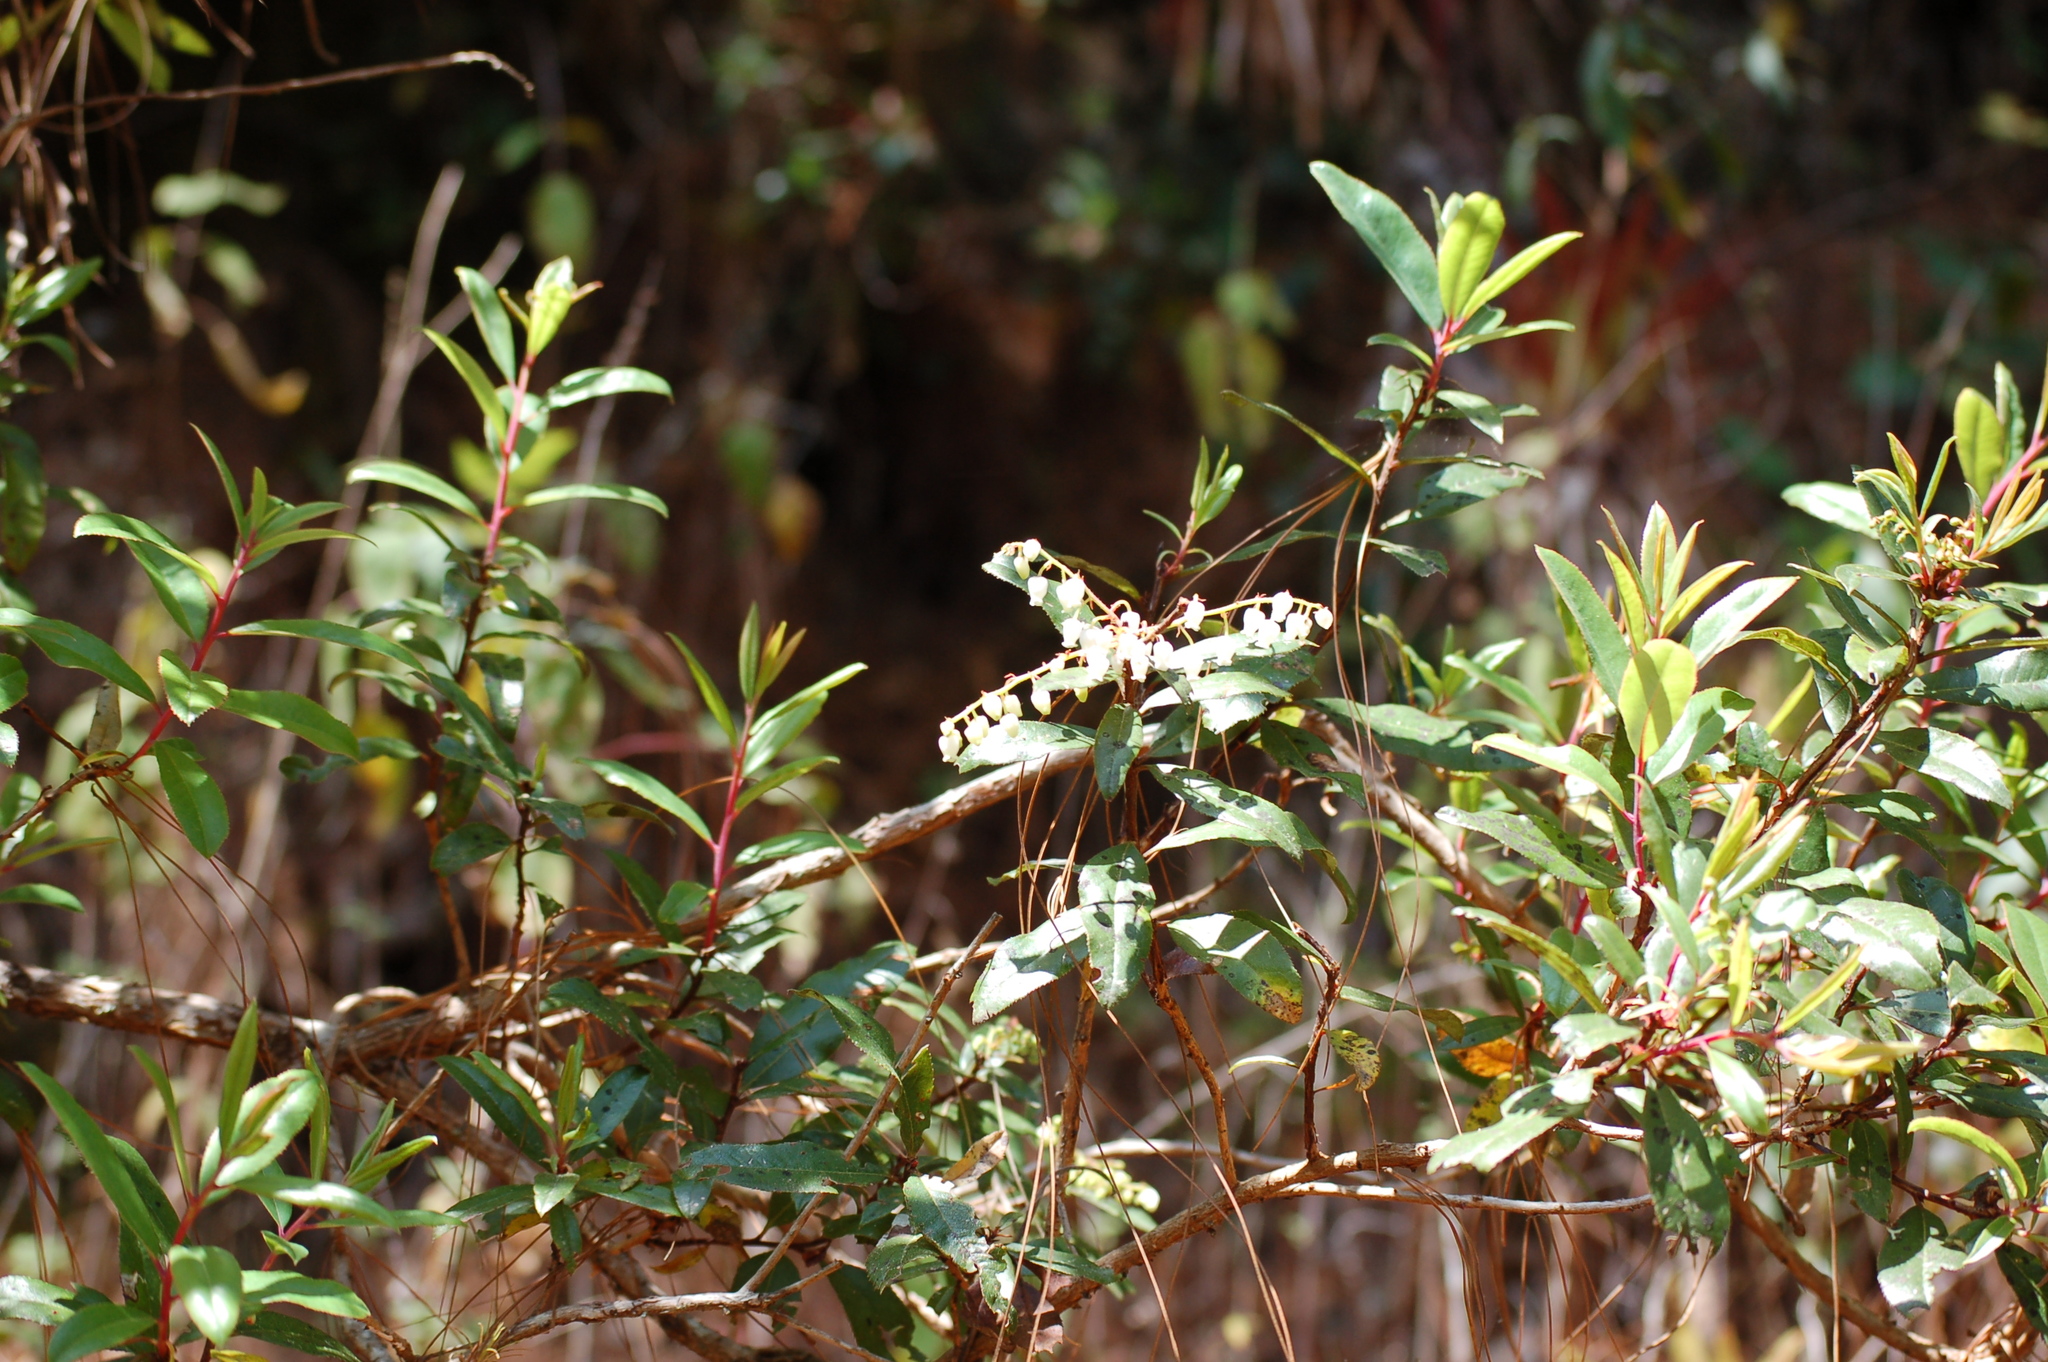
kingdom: Plantae
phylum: Tracheophyta
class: Magnoliopsida
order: Ericales
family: Ericaceae
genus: Comarostaphylis
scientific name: Comarostaphylis discolor
